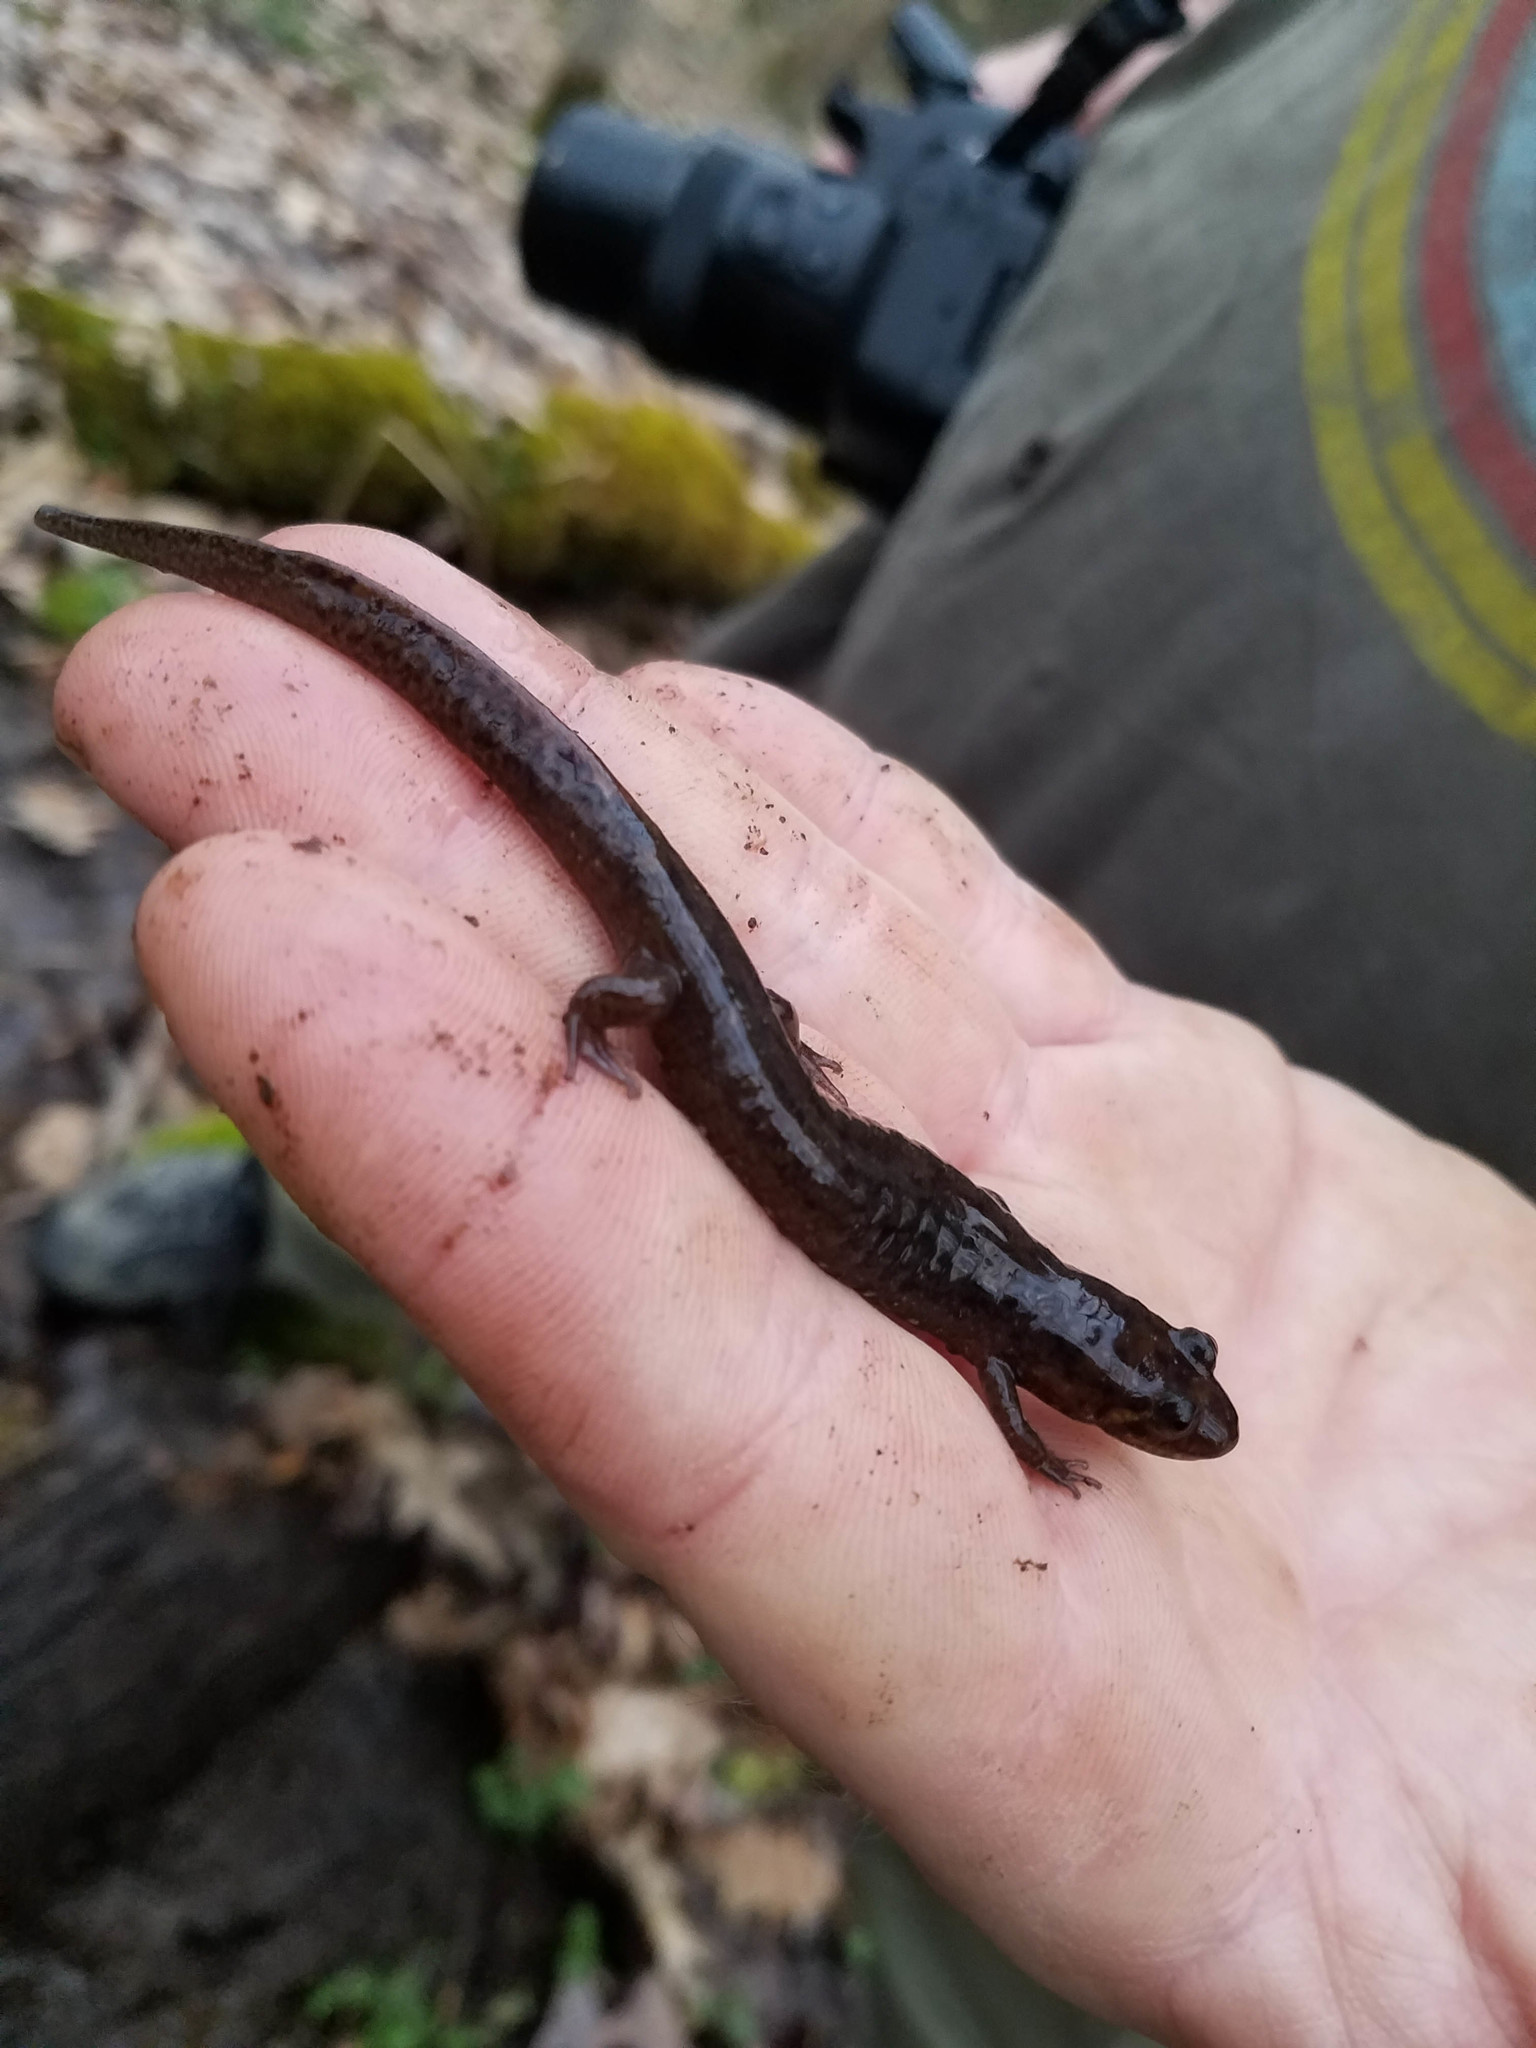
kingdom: Animalia
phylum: Chordata
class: Amphibia
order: Caudata
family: Plethodontidae
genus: Desmognathus
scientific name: Desmognathus monticola
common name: Seal salamander
